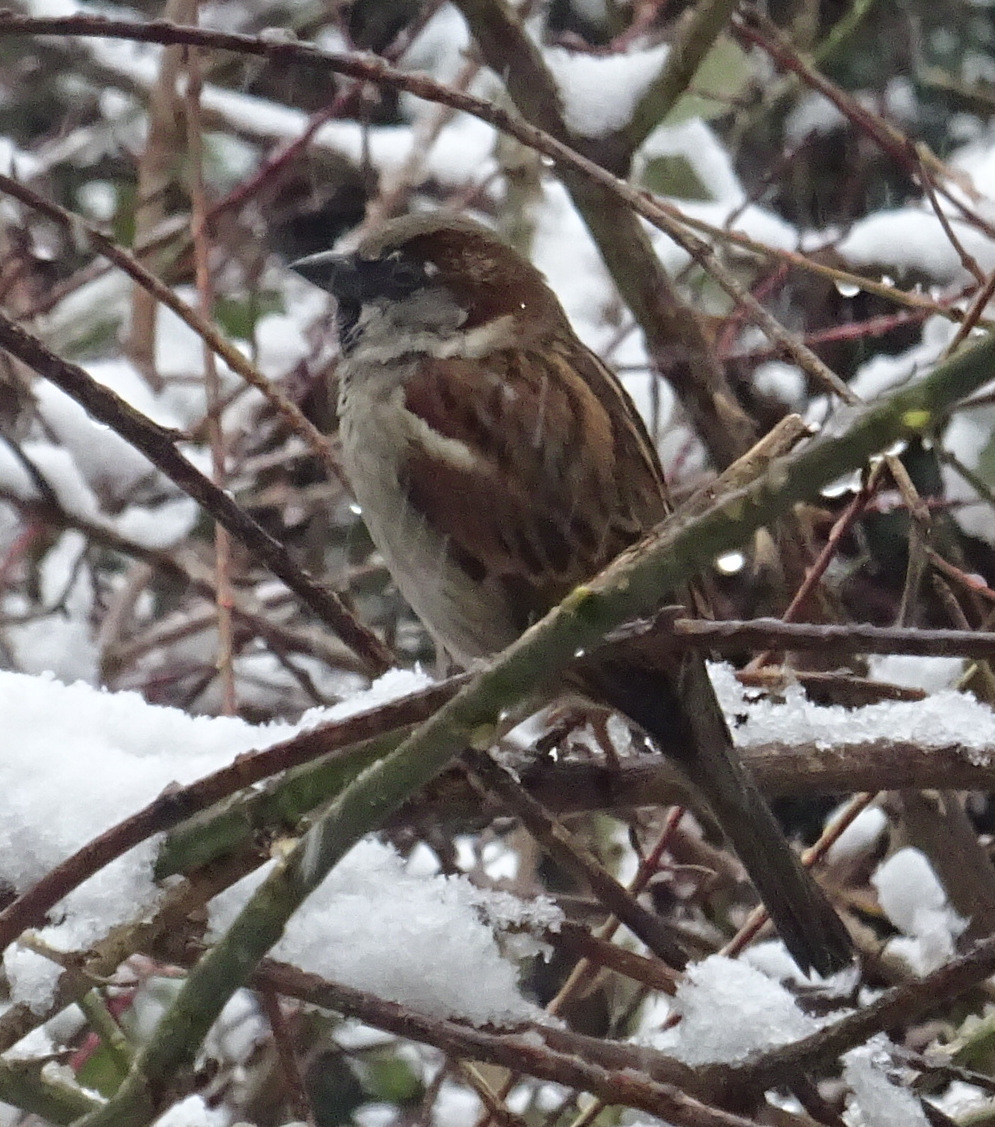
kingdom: Animalia
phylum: Chordata
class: Aves
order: Passeriformes
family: Passeridae
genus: Passer
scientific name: Passer domesticus
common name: House sparrow
